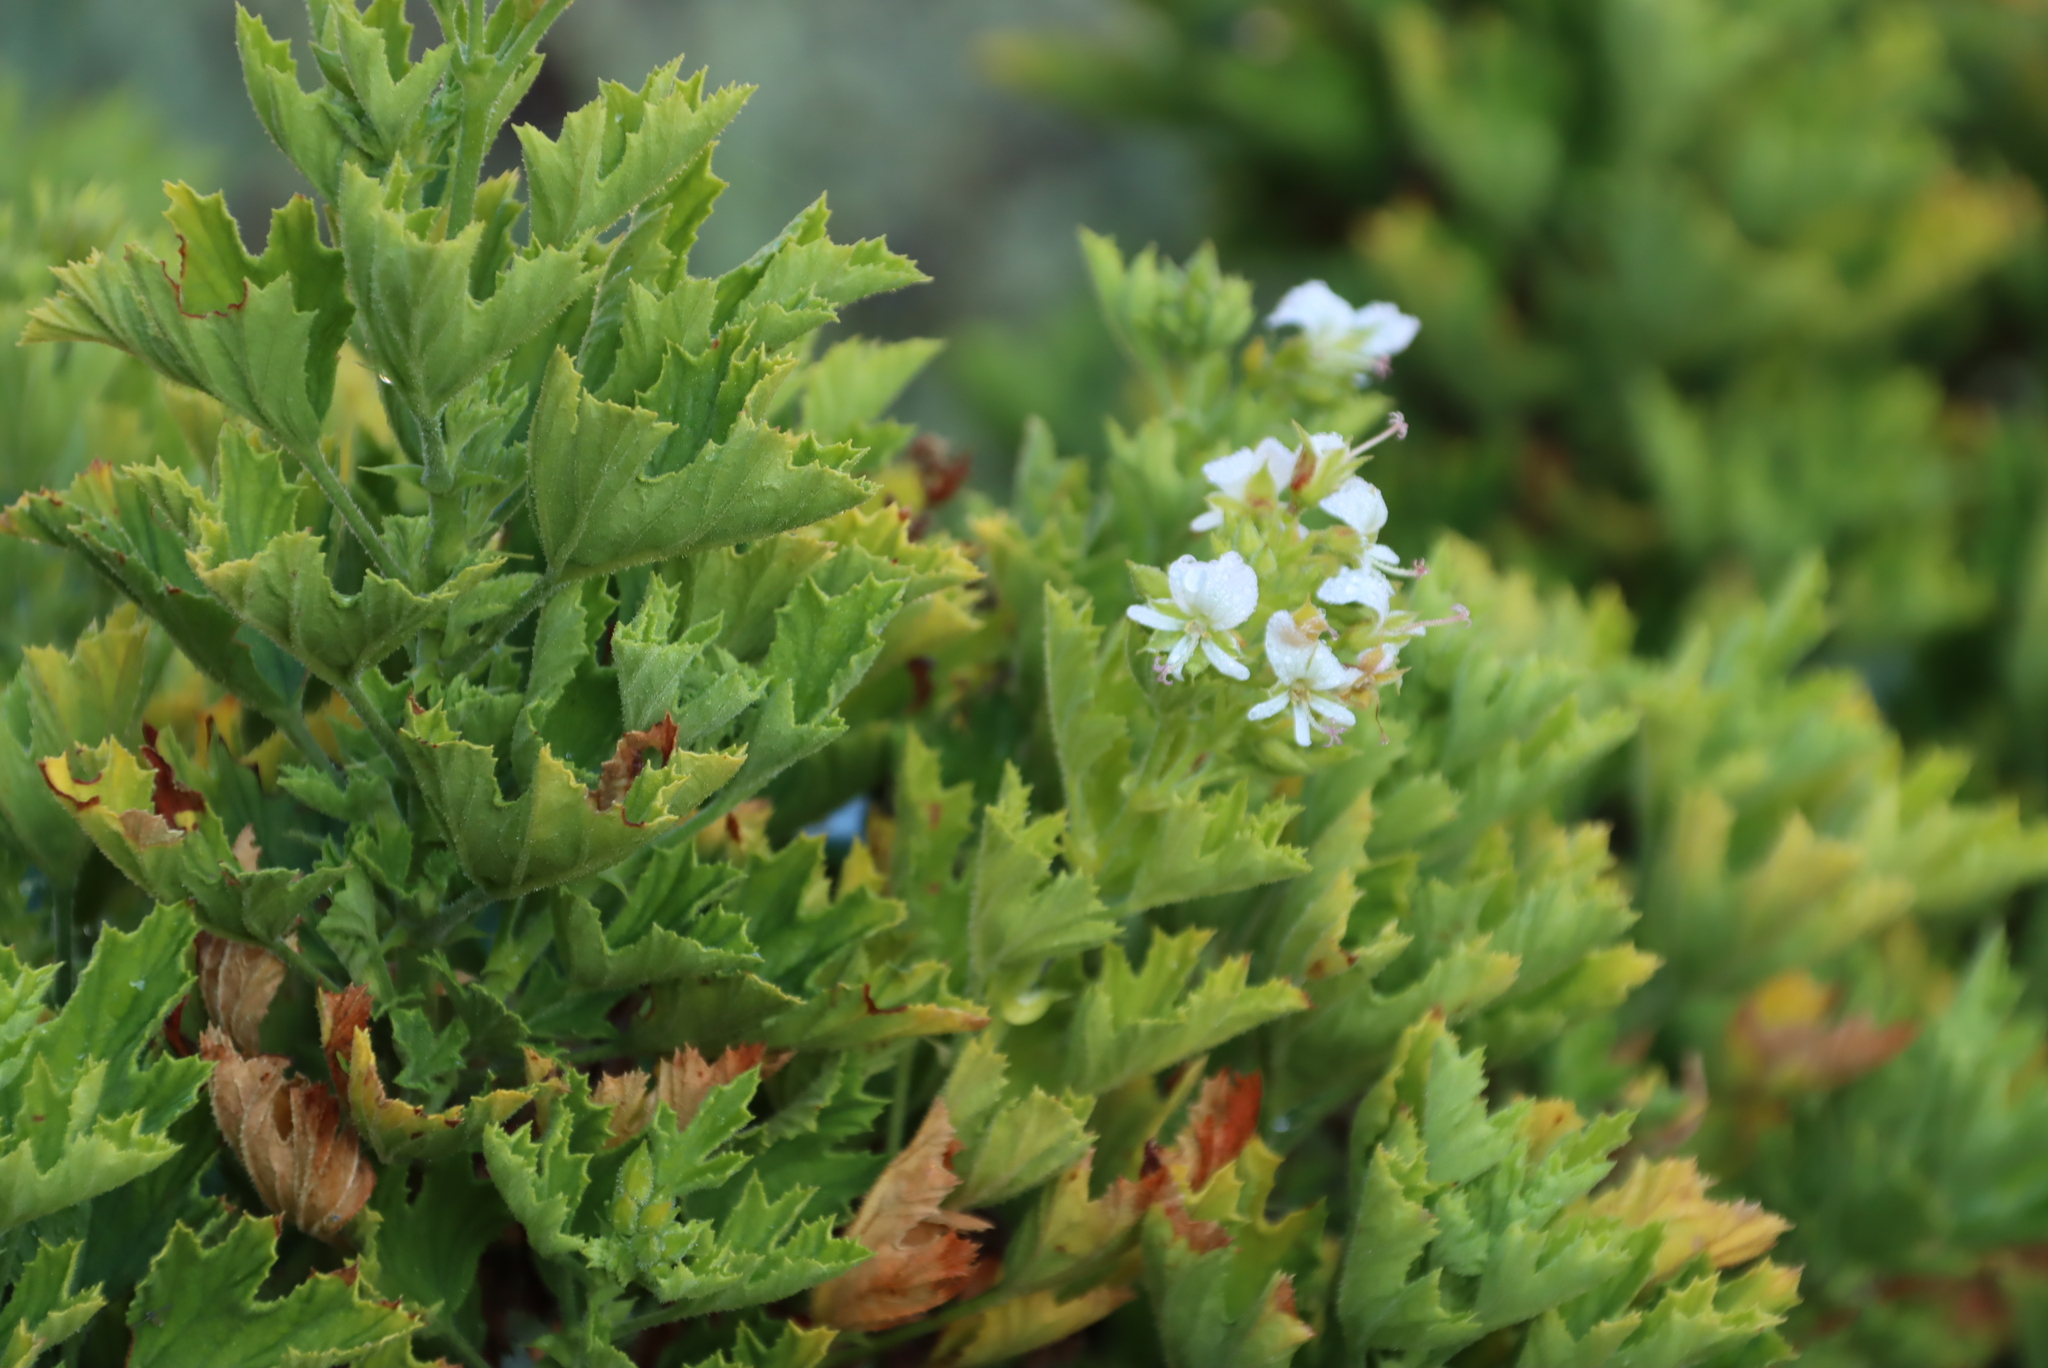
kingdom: Plantae
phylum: Tracheophyta
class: Magnoliopsida
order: Geraniales
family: Geraniaceae
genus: Pelargonium
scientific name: Pelargonium ribifolium
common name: Currant-leaf pelargonium
